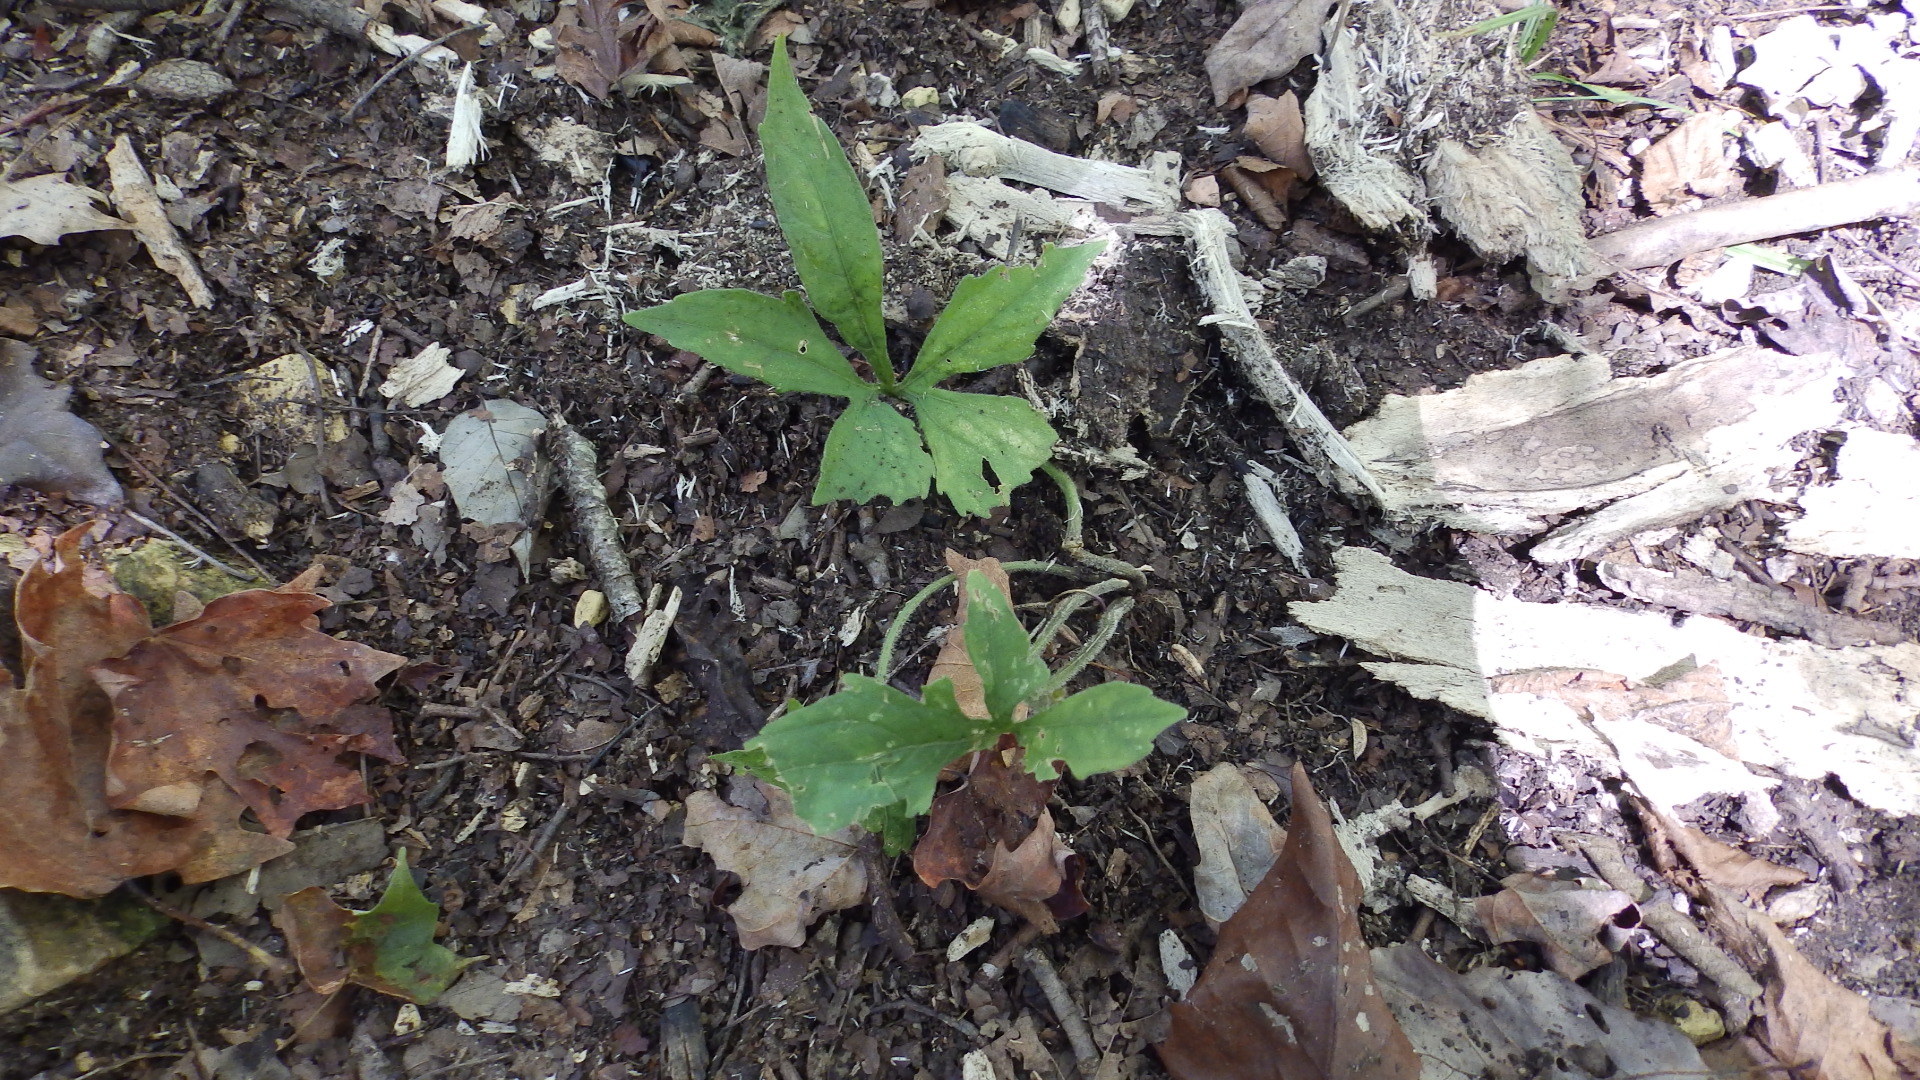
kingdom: Plantae
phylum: Tracheophyta
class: Magnoliopsida
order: Malpighiales
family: Violaceae
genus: Viola
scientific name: Viola palmata
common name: Early blue violet
